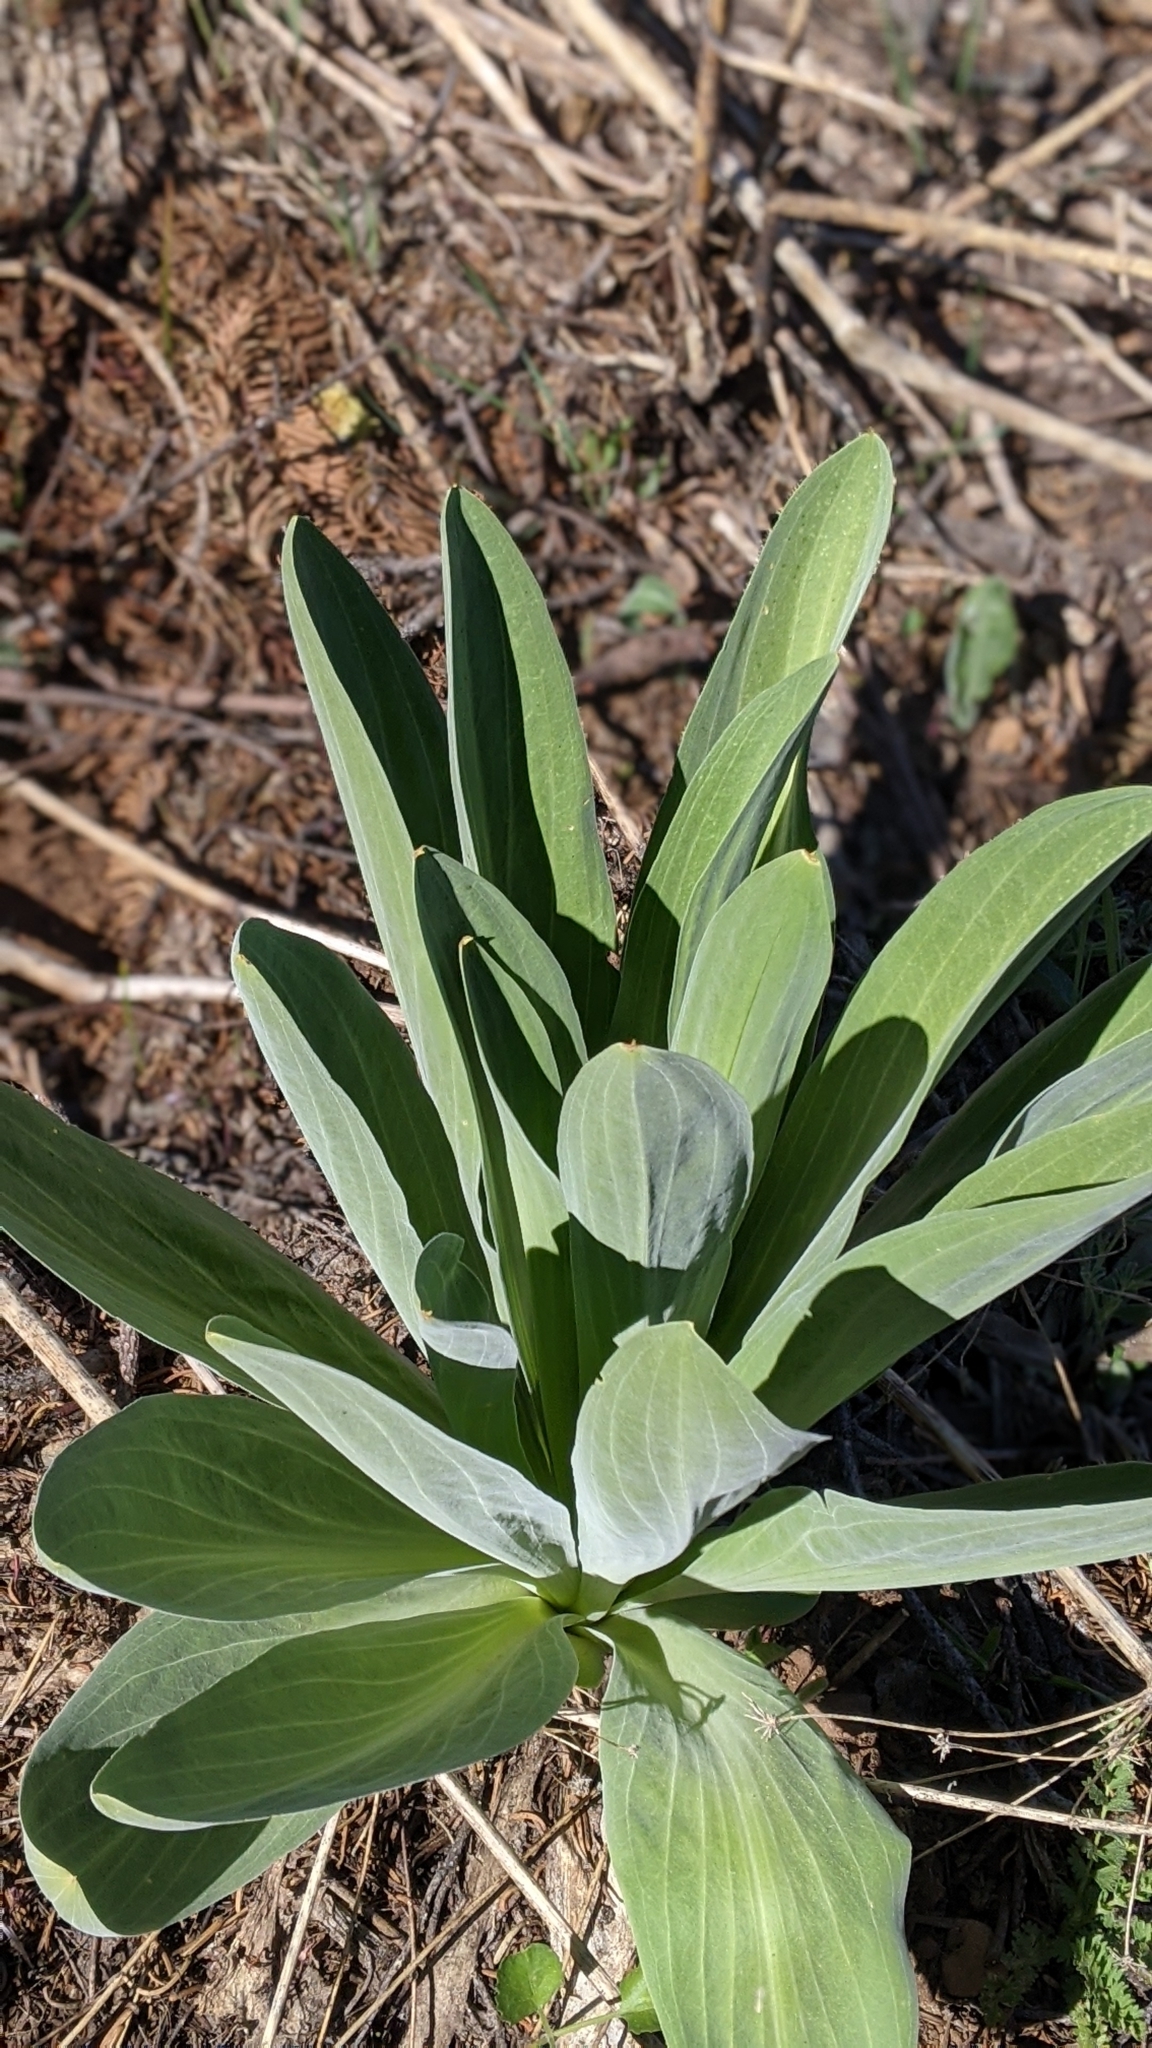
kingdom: Plantae
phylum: Tracheophyta
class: Magnoliopsida
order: Gentianales
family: Gentianaceae
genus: Frasera
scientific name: Frasera speciosa
